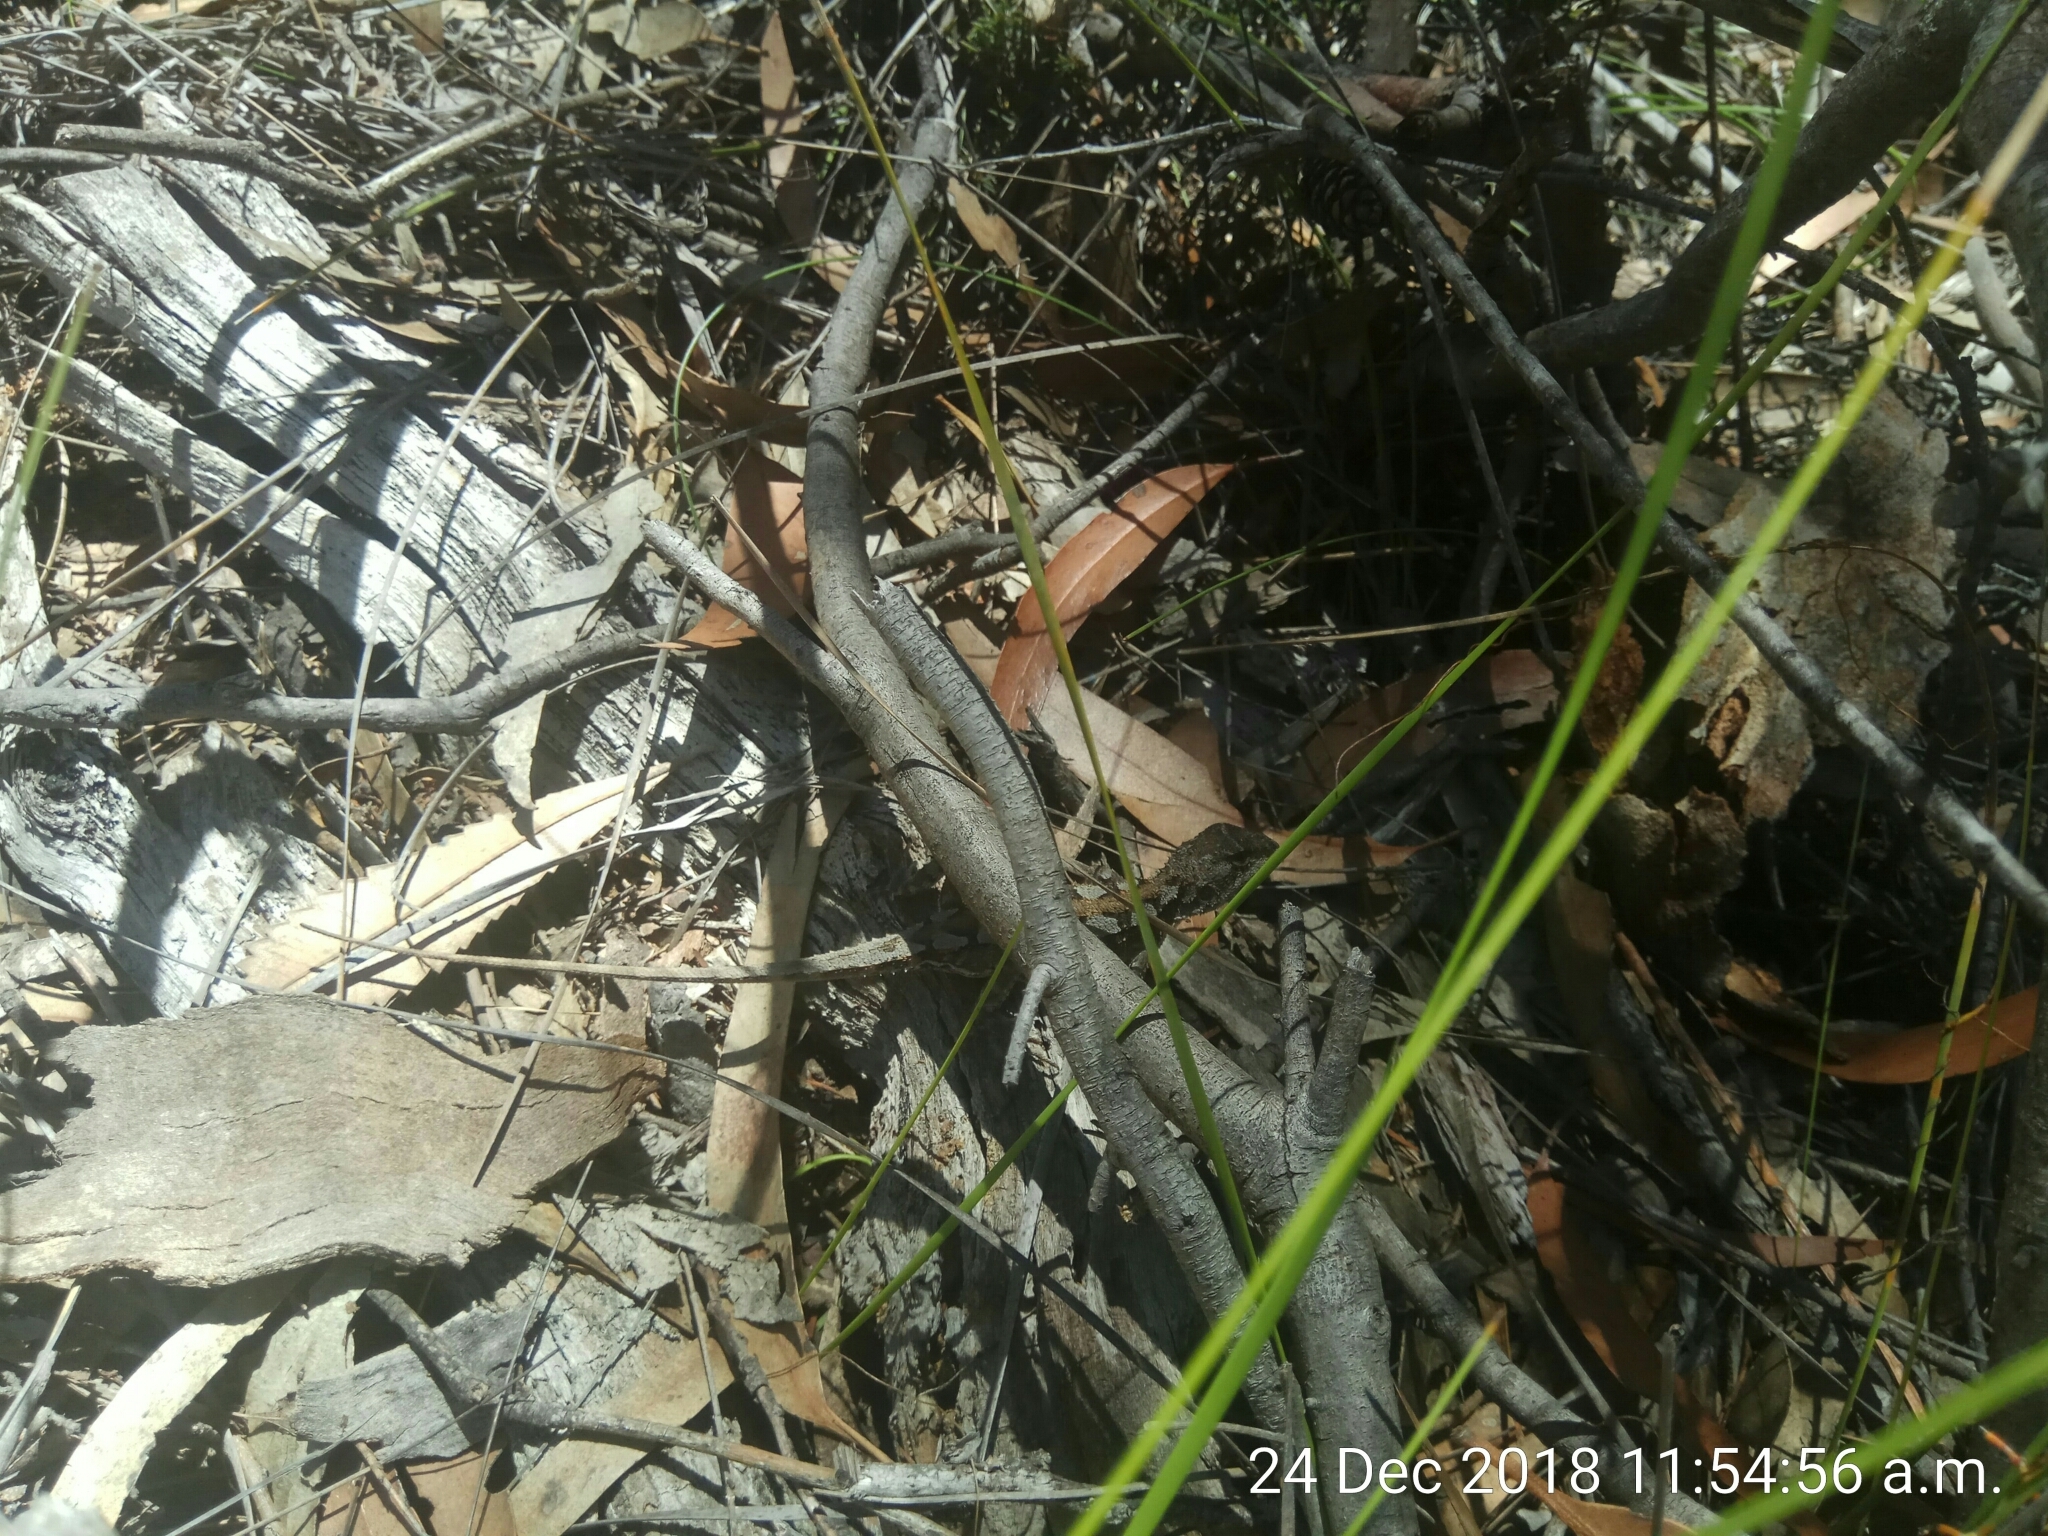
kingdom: Animalia
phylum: Chordata
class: Squamata
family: Agamidae
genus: Rankinia
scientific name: Rankinia diemensis
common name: Mountain dragon
